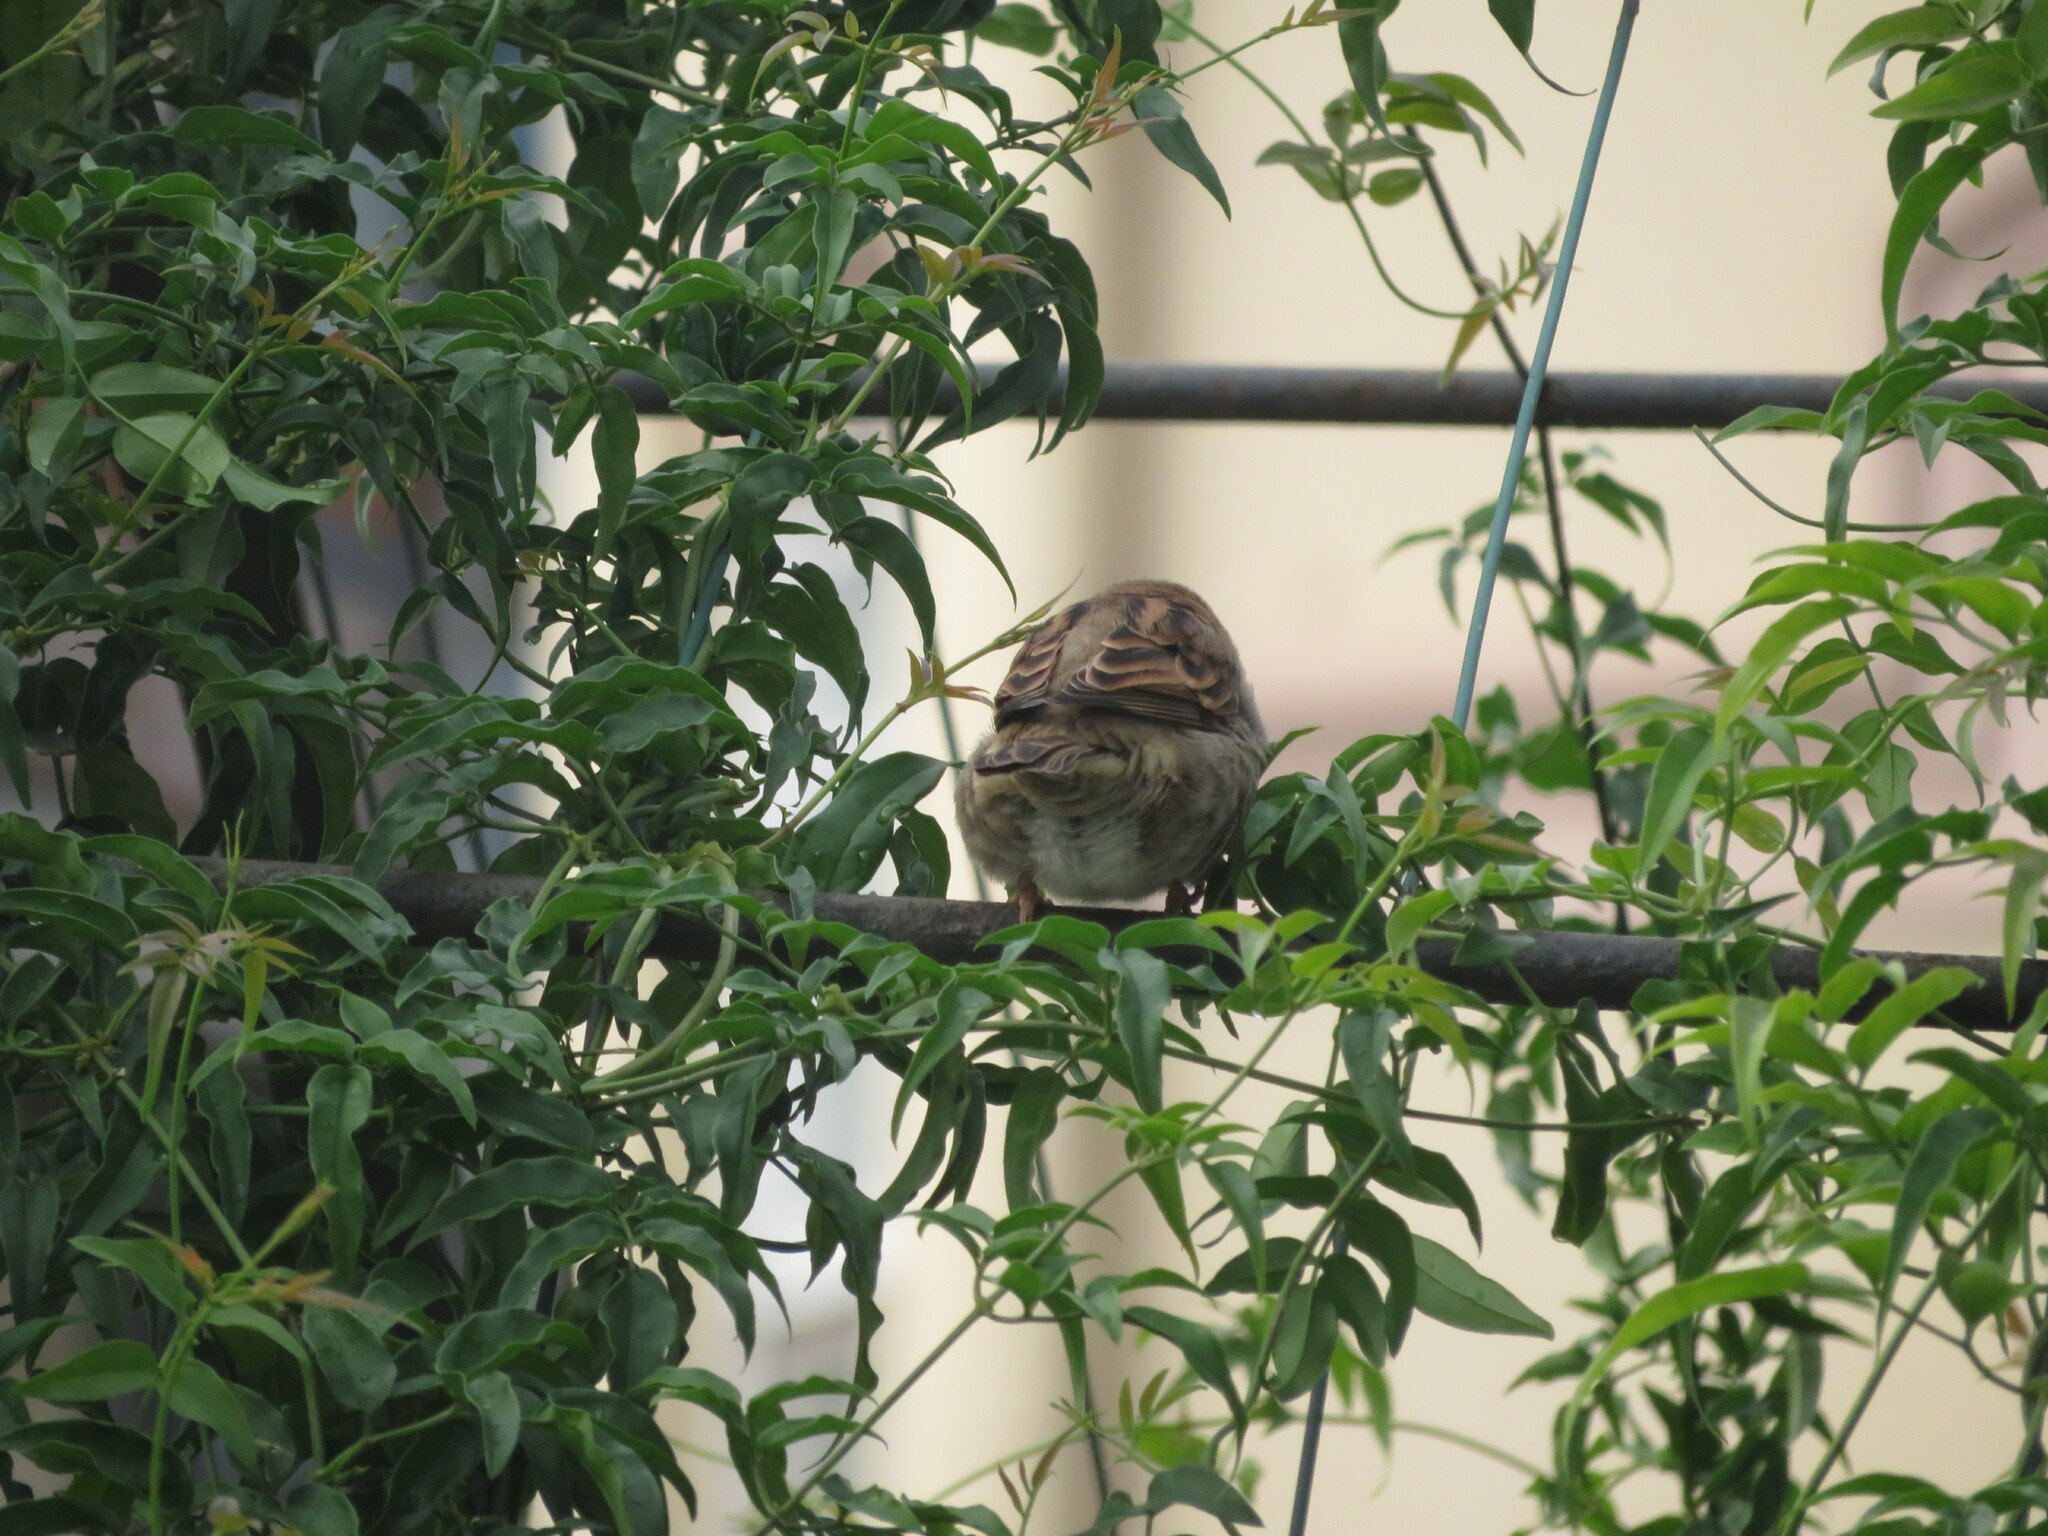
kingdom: Animalia
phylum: Chordata
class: Aves
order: Passeriformes
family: Passeridae
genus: Passer
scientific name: Passer domesticus
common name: House sparrow
